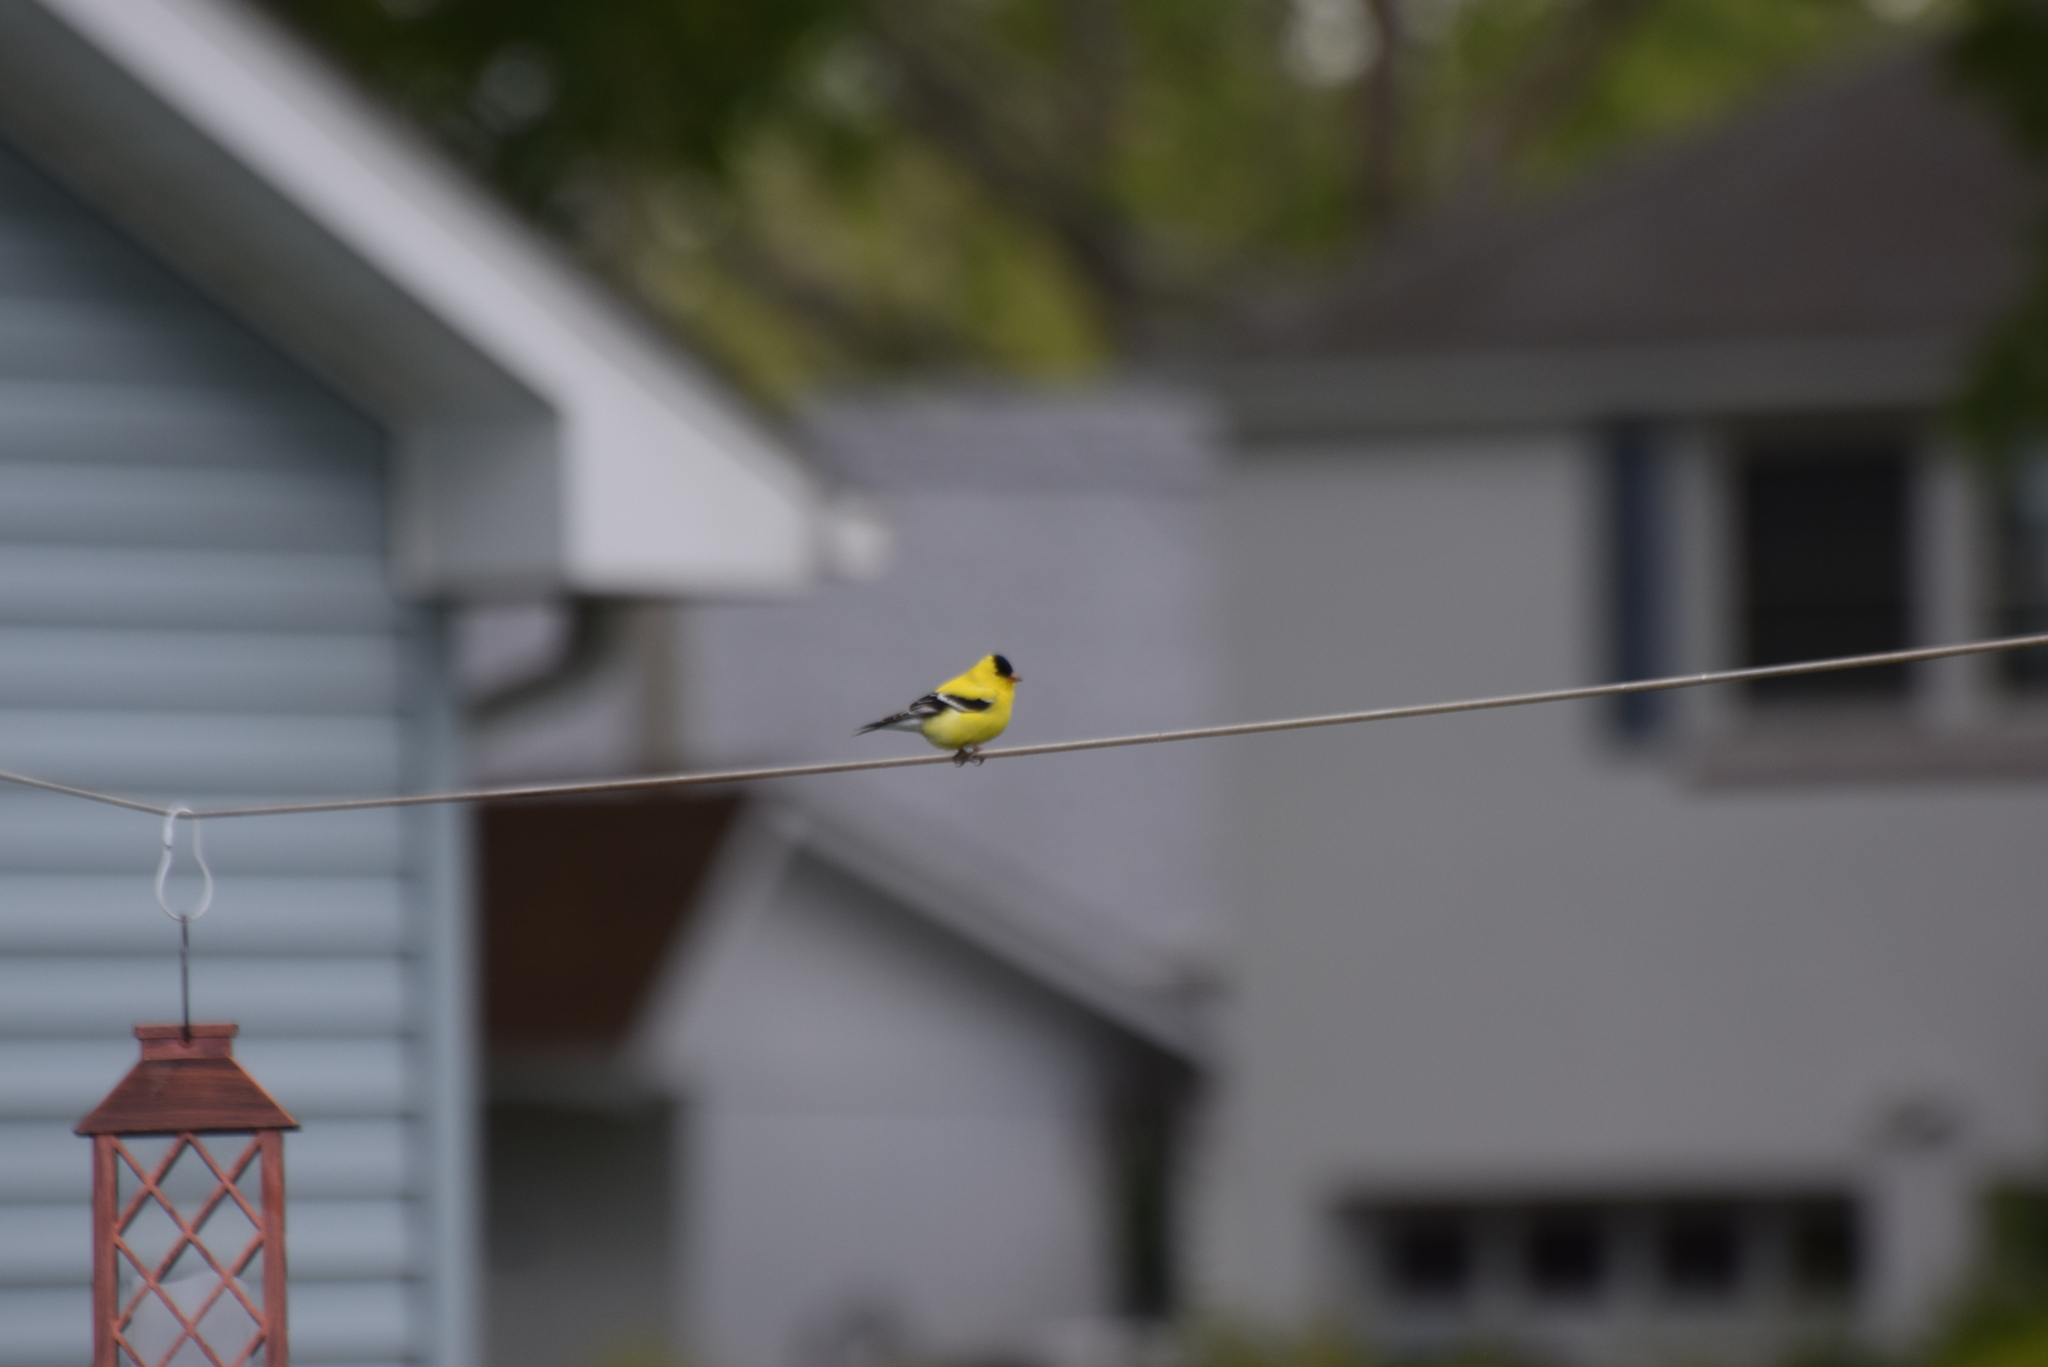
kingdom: Animalia
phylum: Chordata
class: Aves
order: Passeriformes
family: Fringillidae
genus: Spinus
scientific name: Spinus tristis
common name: American goldfinch
